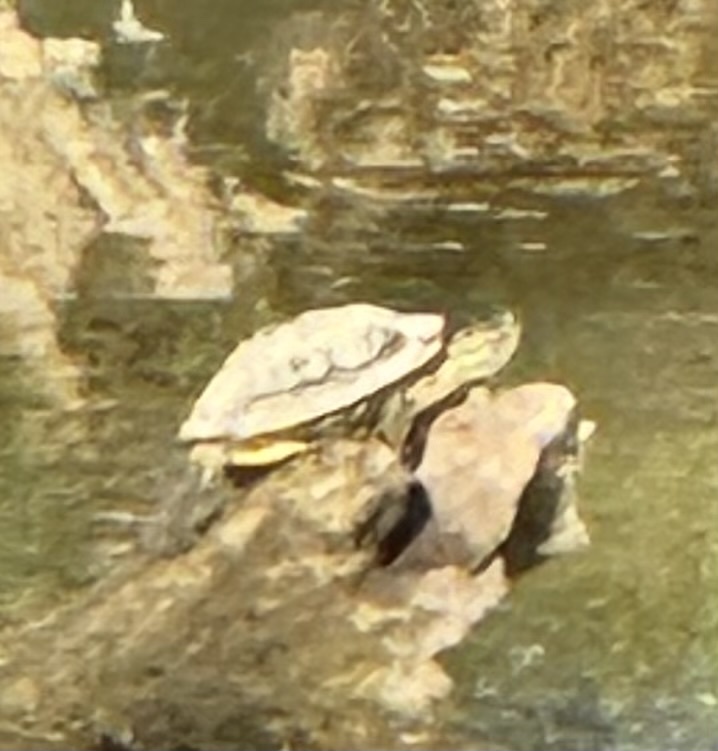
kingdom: Animalia
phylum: Chordata
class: Testudines
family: Emydidae
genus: Trachemys
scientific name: Trachemys scripta
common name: Slider
